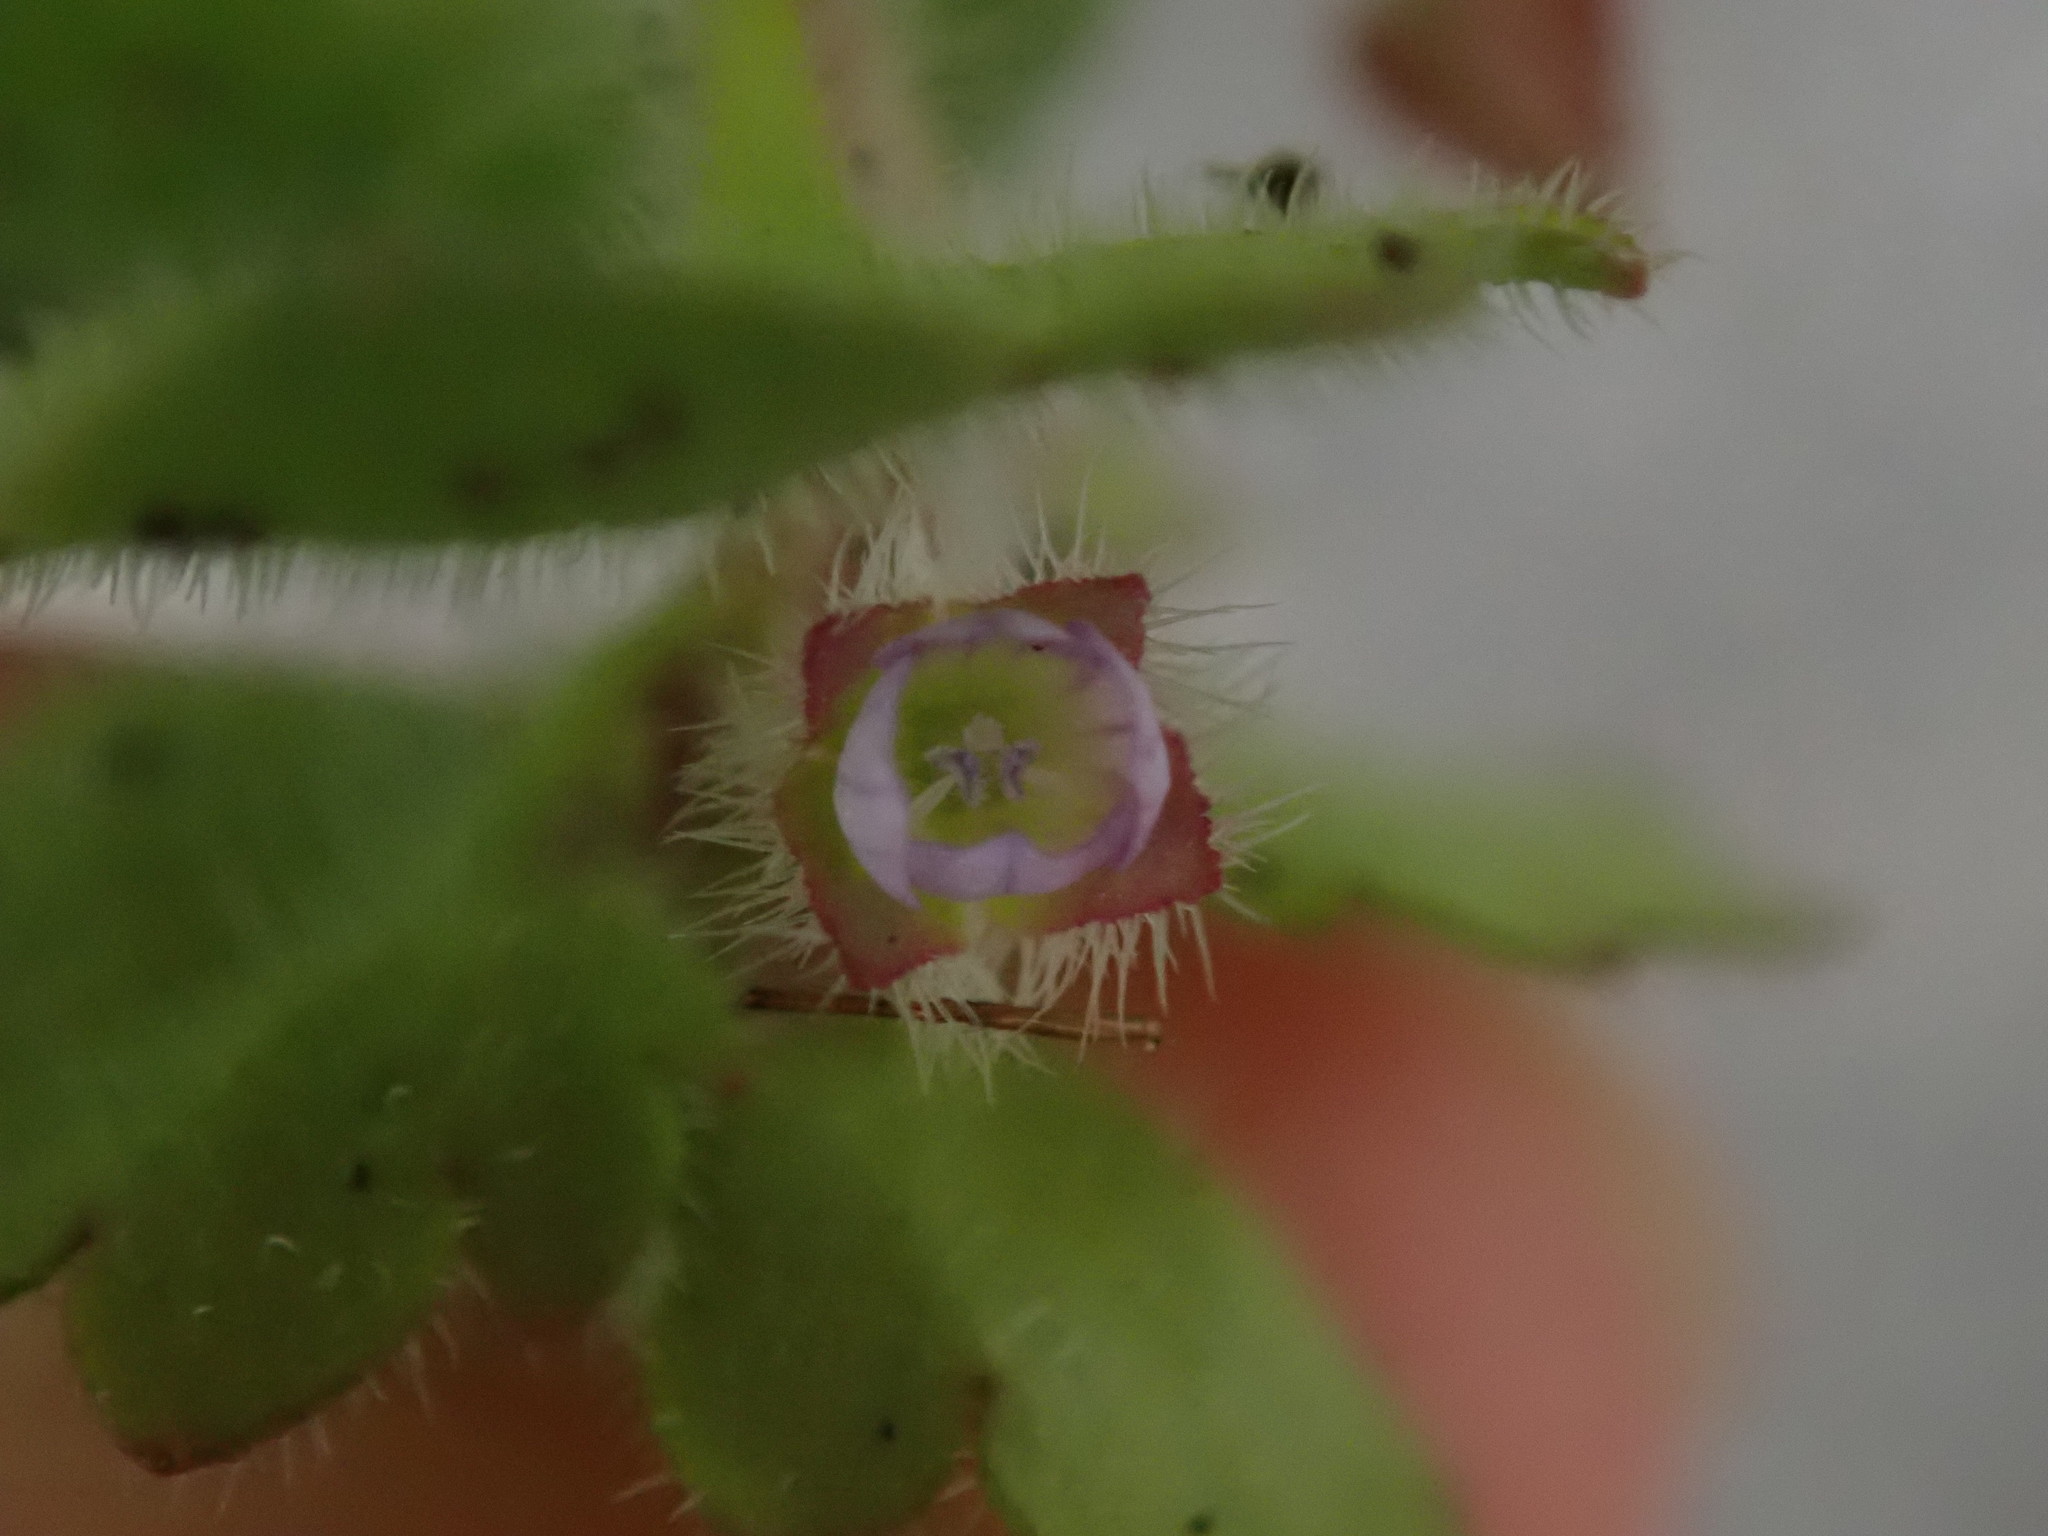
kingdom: Plantae
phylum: Tracheophyta
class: Magnoliopsida
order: Lamiales
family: Plantaginaceae
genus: Veronica
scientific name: Veronica sublobata
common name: False ivy-leaved speedwell
